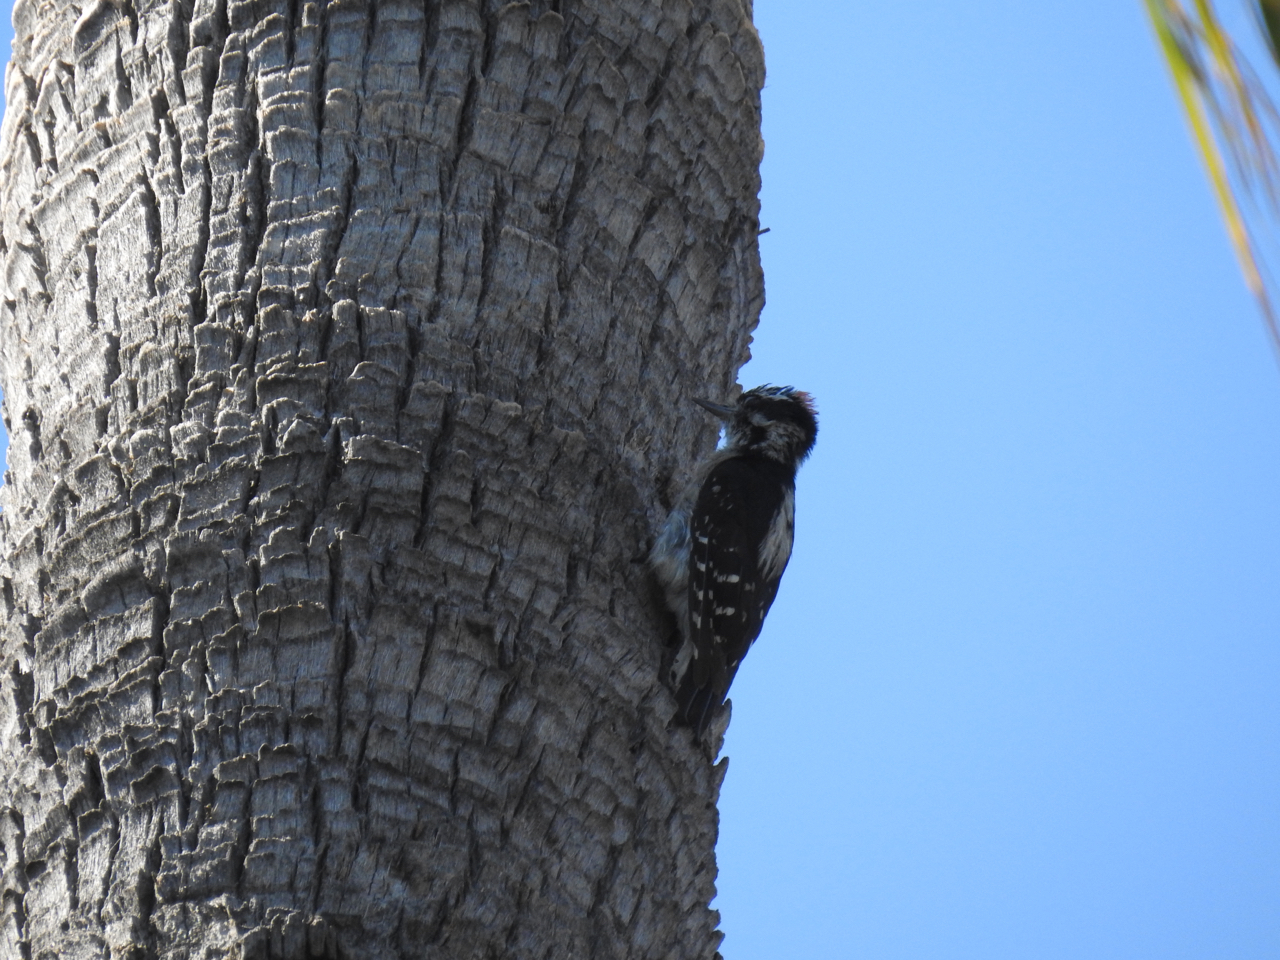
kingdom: Animalia
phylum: Chordata
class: Aves
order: Piciformes
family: Picidae
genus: Dryobates
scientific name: Dryobates pubescens
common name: Downy woodpecker
